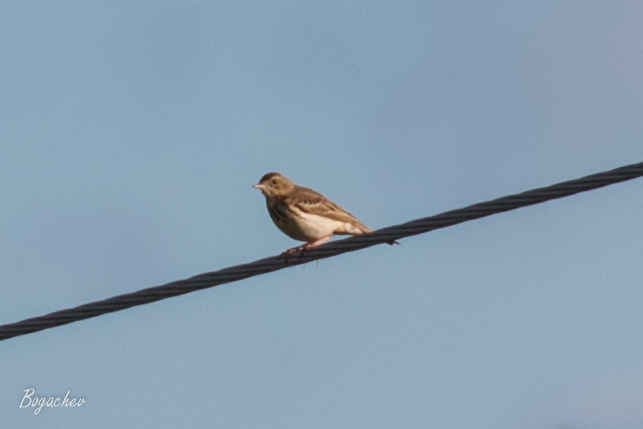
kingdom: Animalia
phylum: Chordata
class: Aves
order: Passeriformes
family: Motacillidae
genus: Anthus
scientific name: Anthus trivialis
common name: Tree pipit
